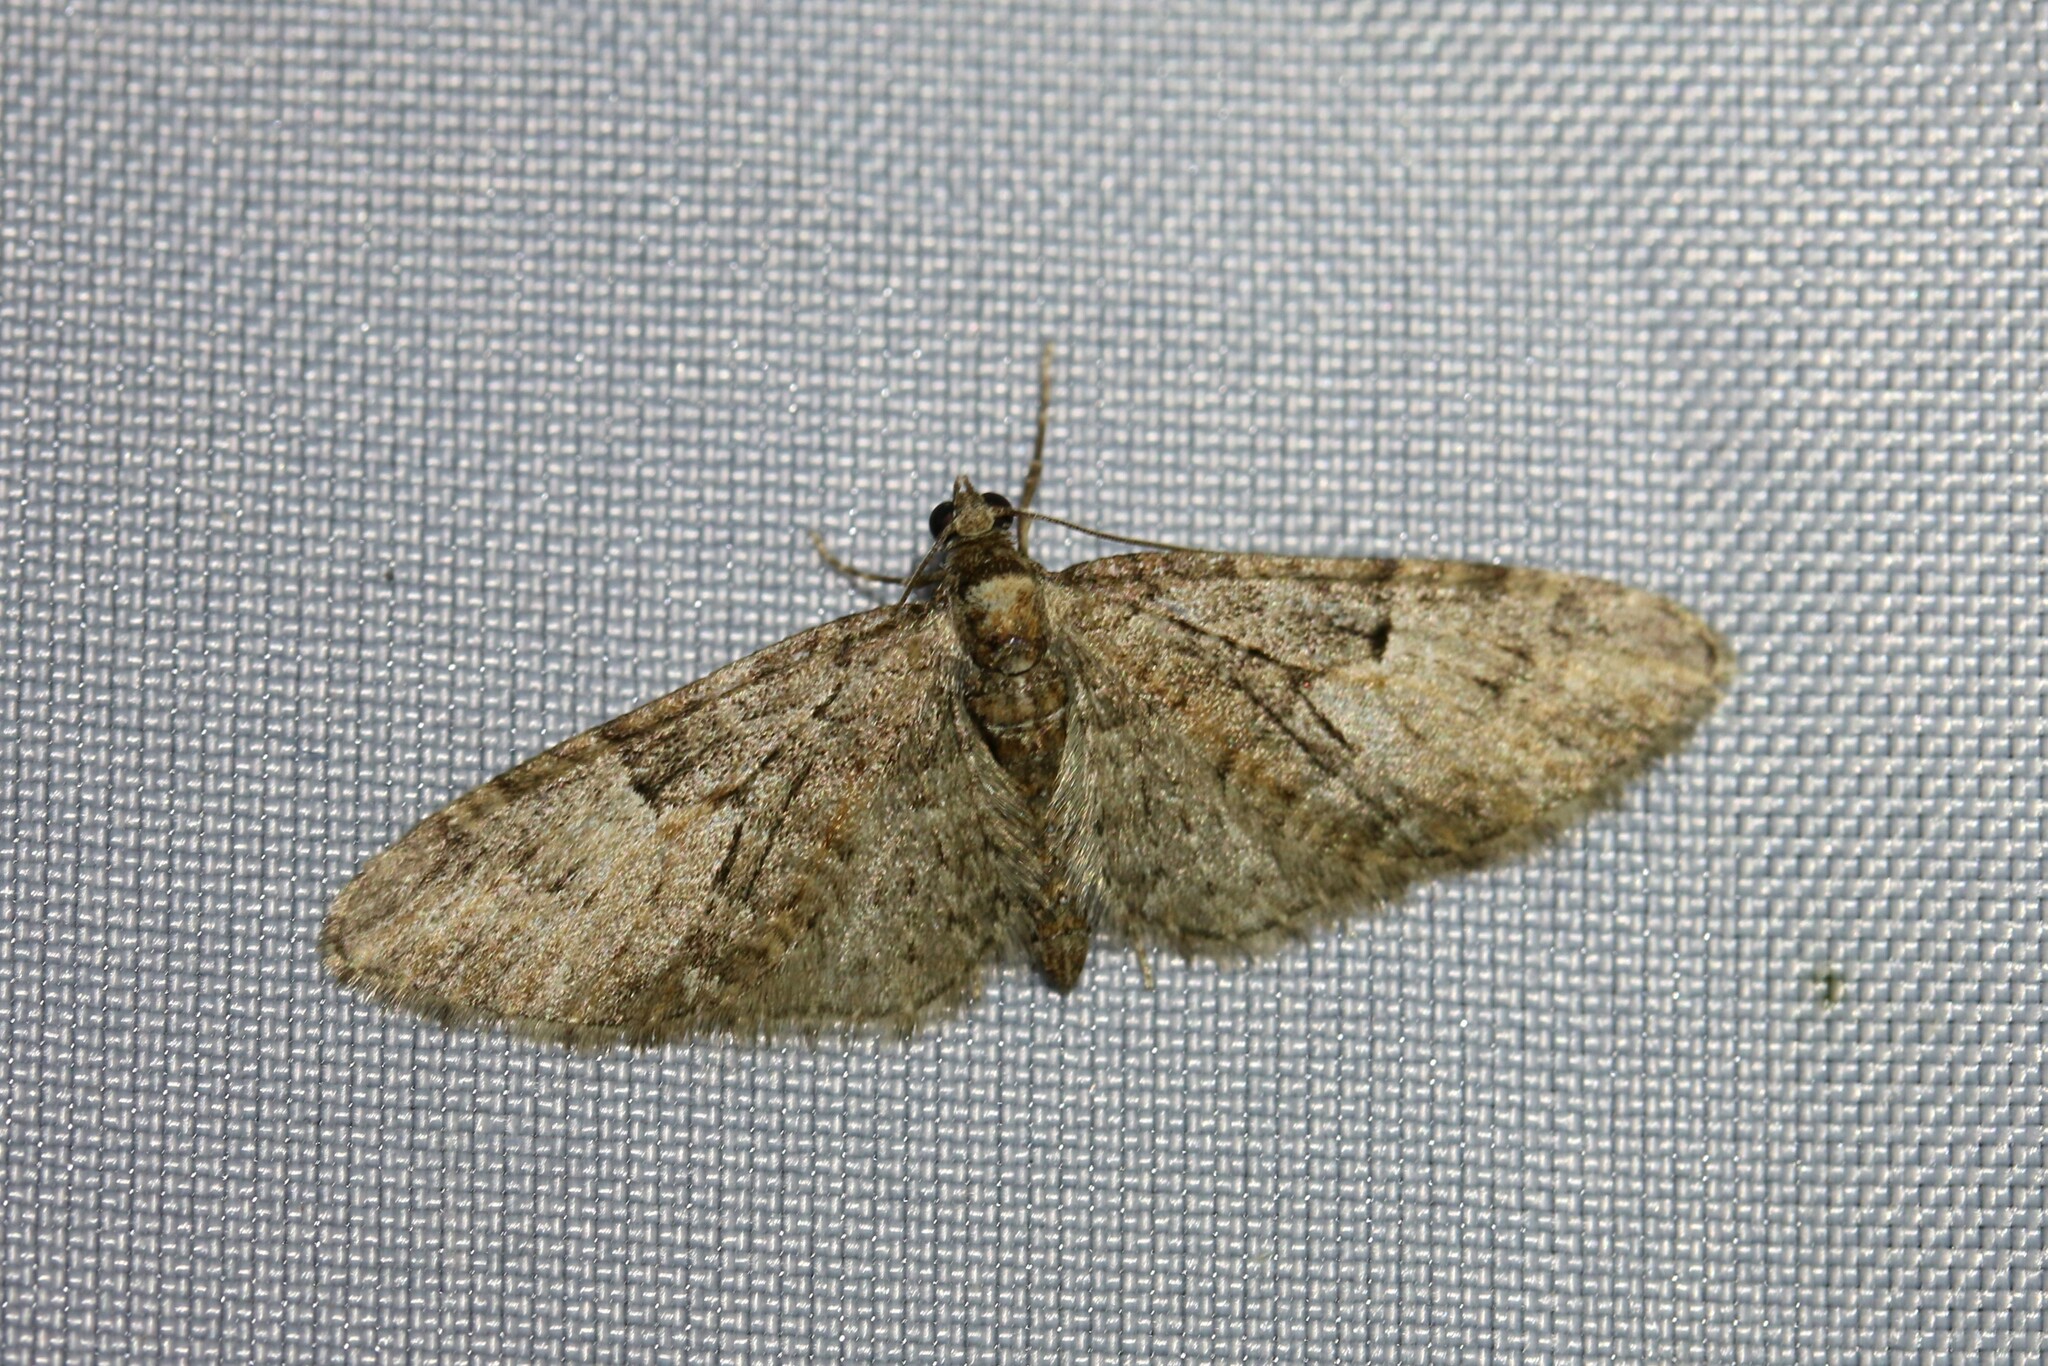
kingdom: Animalia
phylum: Arthropoda
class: Insecta
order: Lepidoptera
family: Geometridae
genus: Eupithecia
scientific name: Eupithecia abbreviata
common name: Brindled pug
